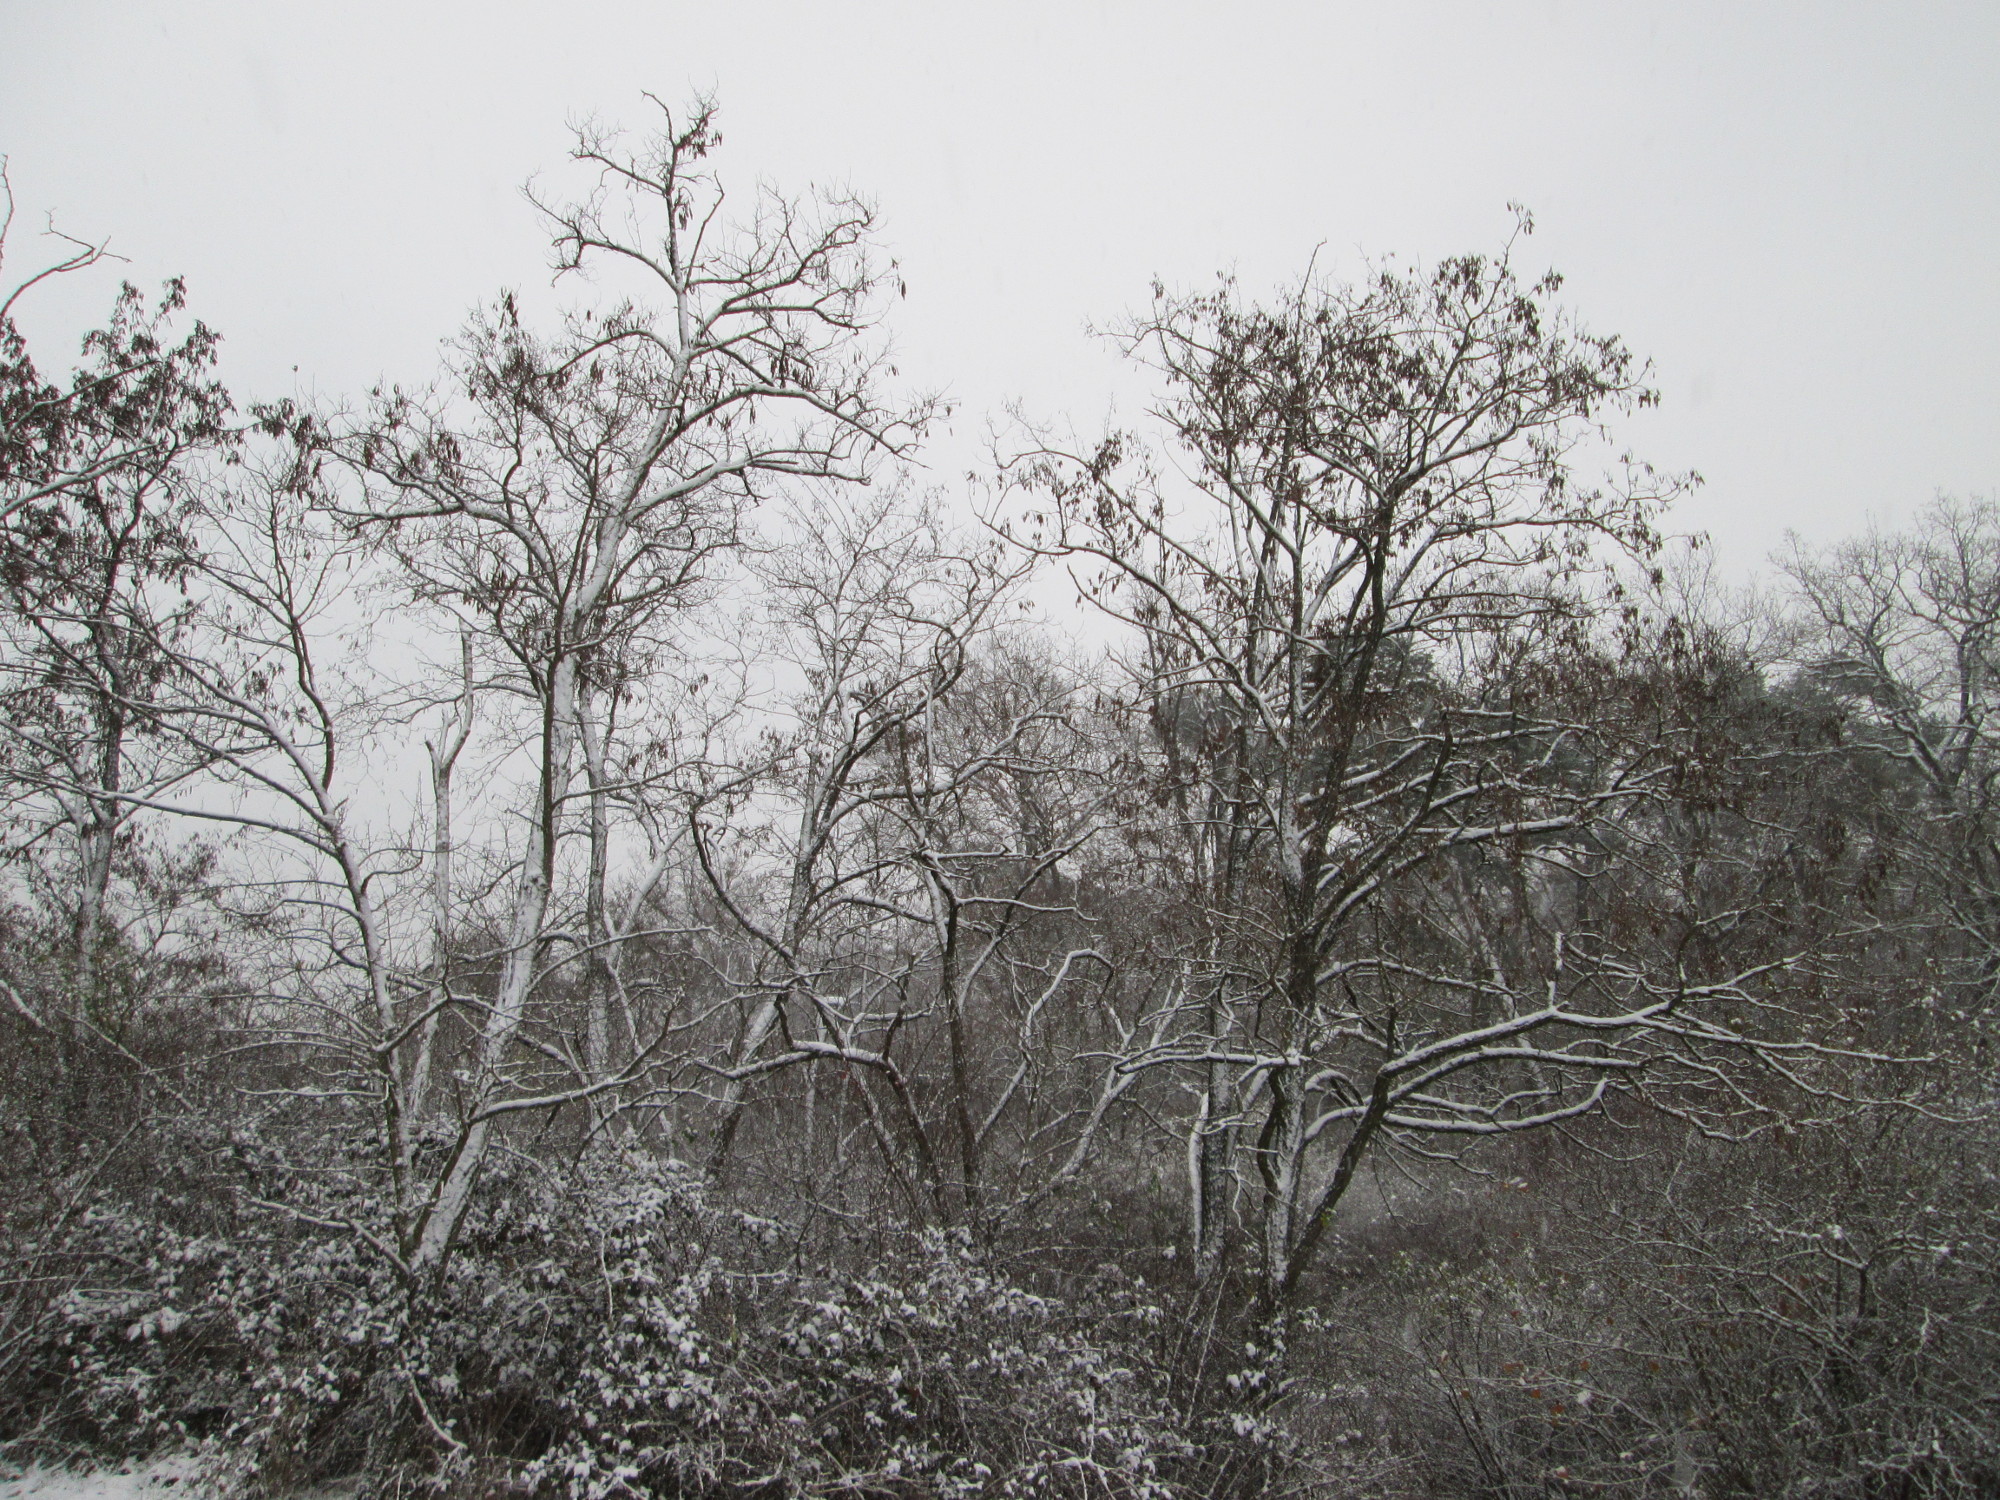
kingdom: Plantae
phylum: Tracheophyta
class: Magnoliopsida
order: Fabales
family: Fabaceae
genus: Robinia
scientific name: Robinia pseudoacacia
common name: Black locust
